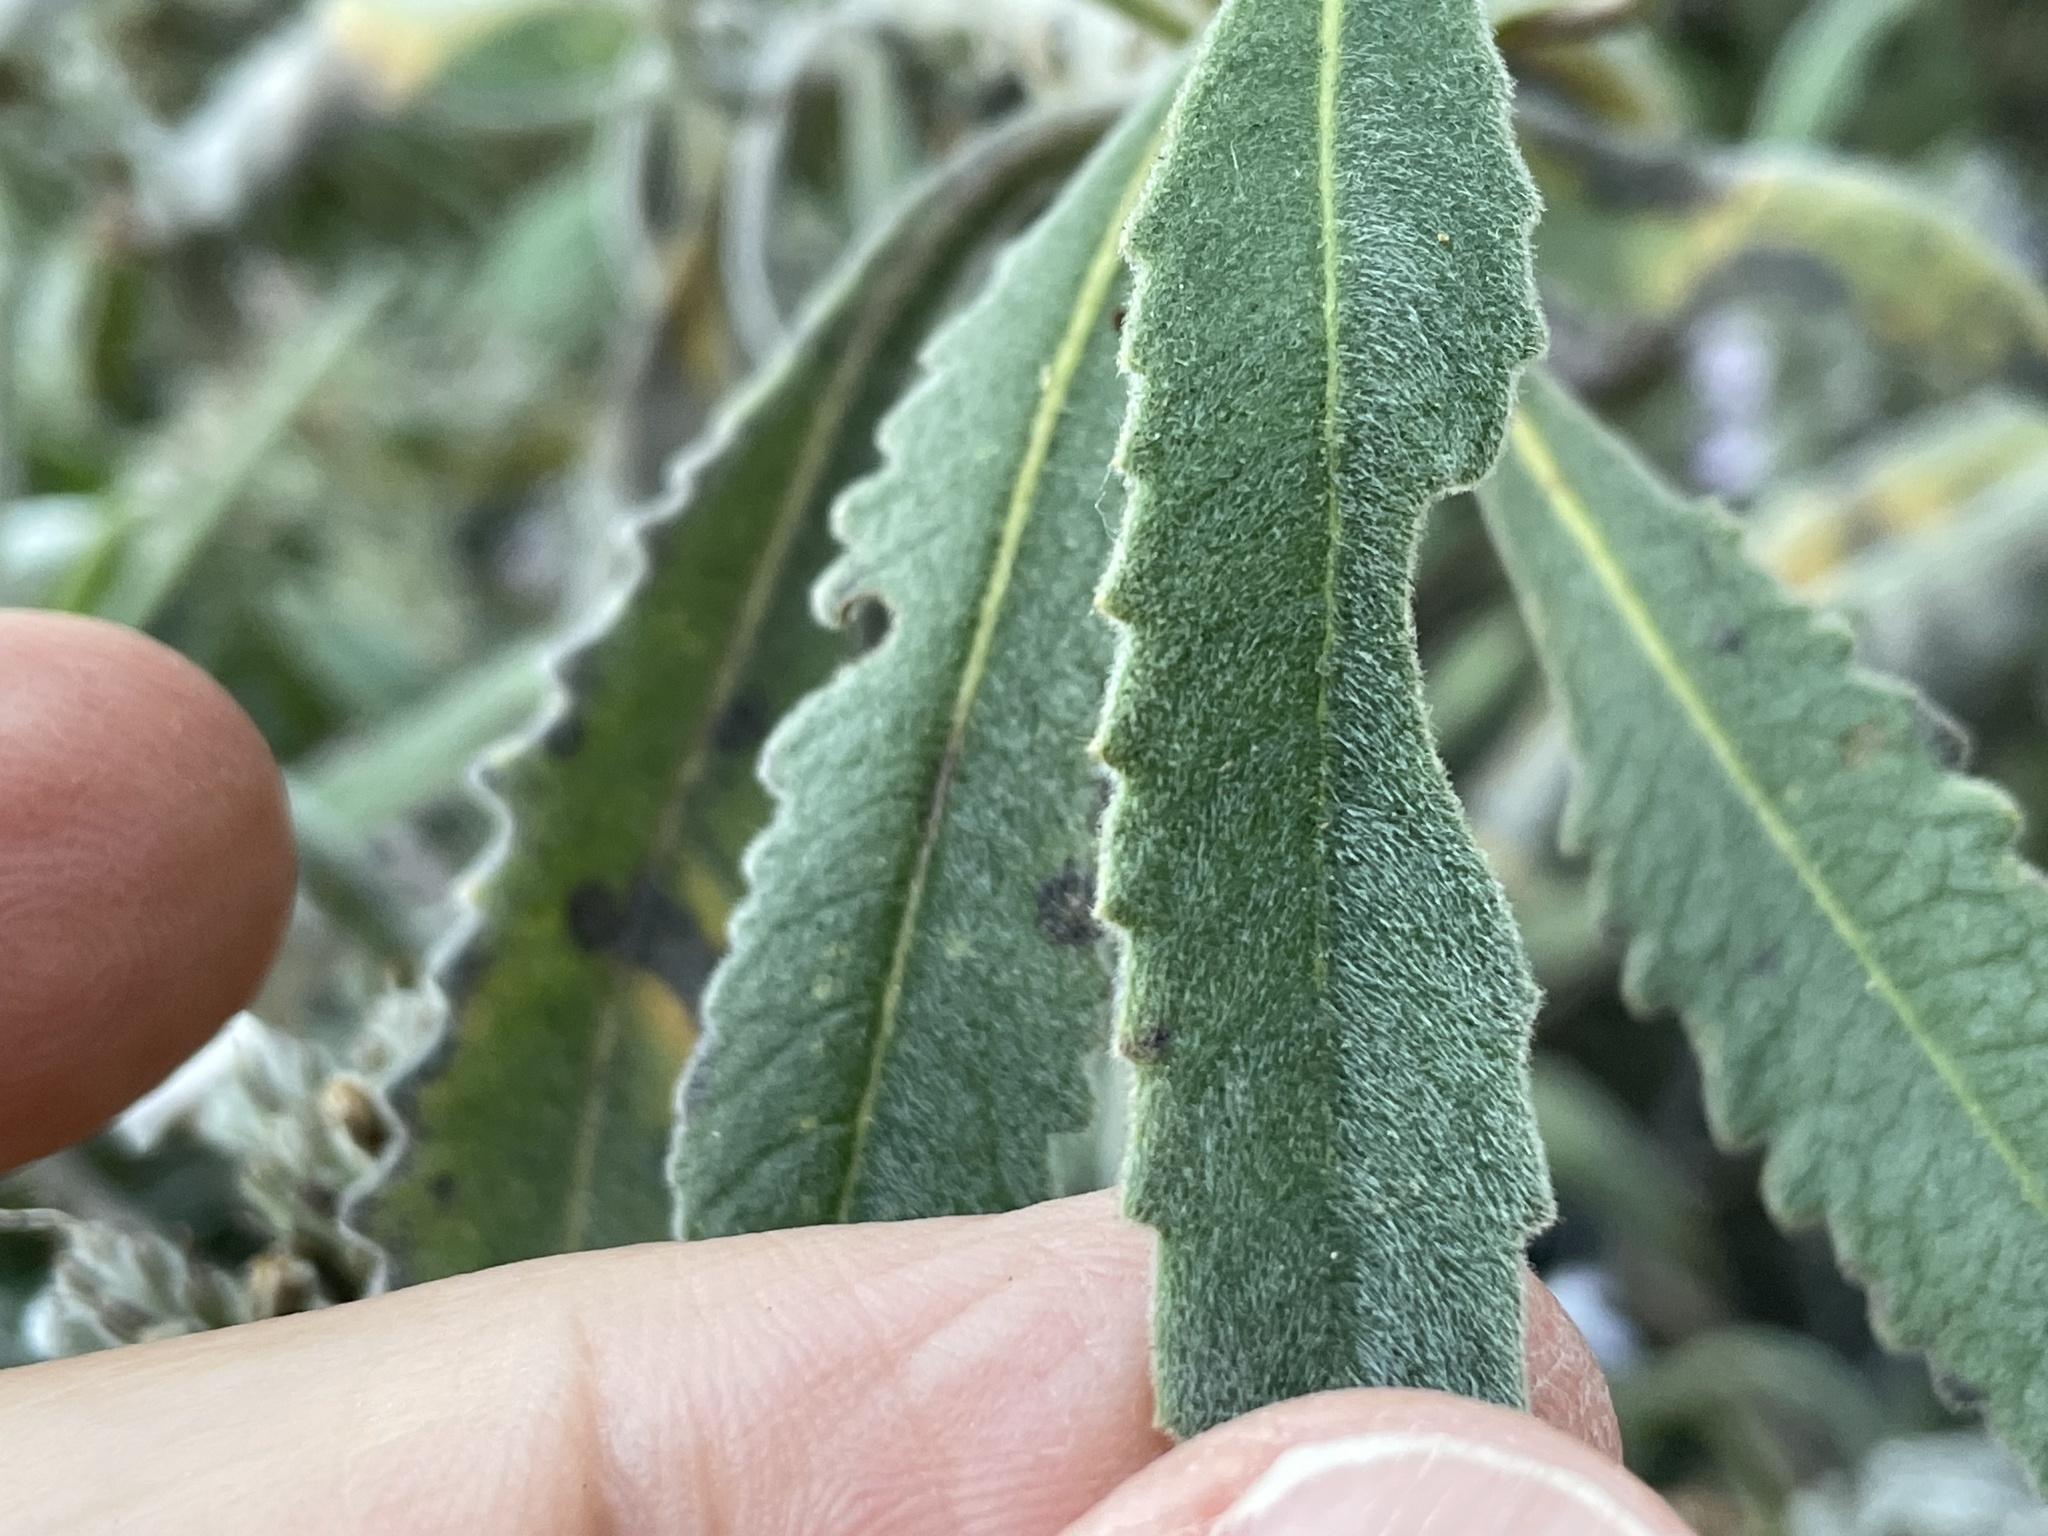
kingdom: Plantae
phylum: Tracheophyta
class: Magnoliopsida
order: Boraginales
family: Namaceae
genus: Eriodictyon
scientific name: Eriodictyon crassifolium
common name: Thick-leaf yerba-santa
